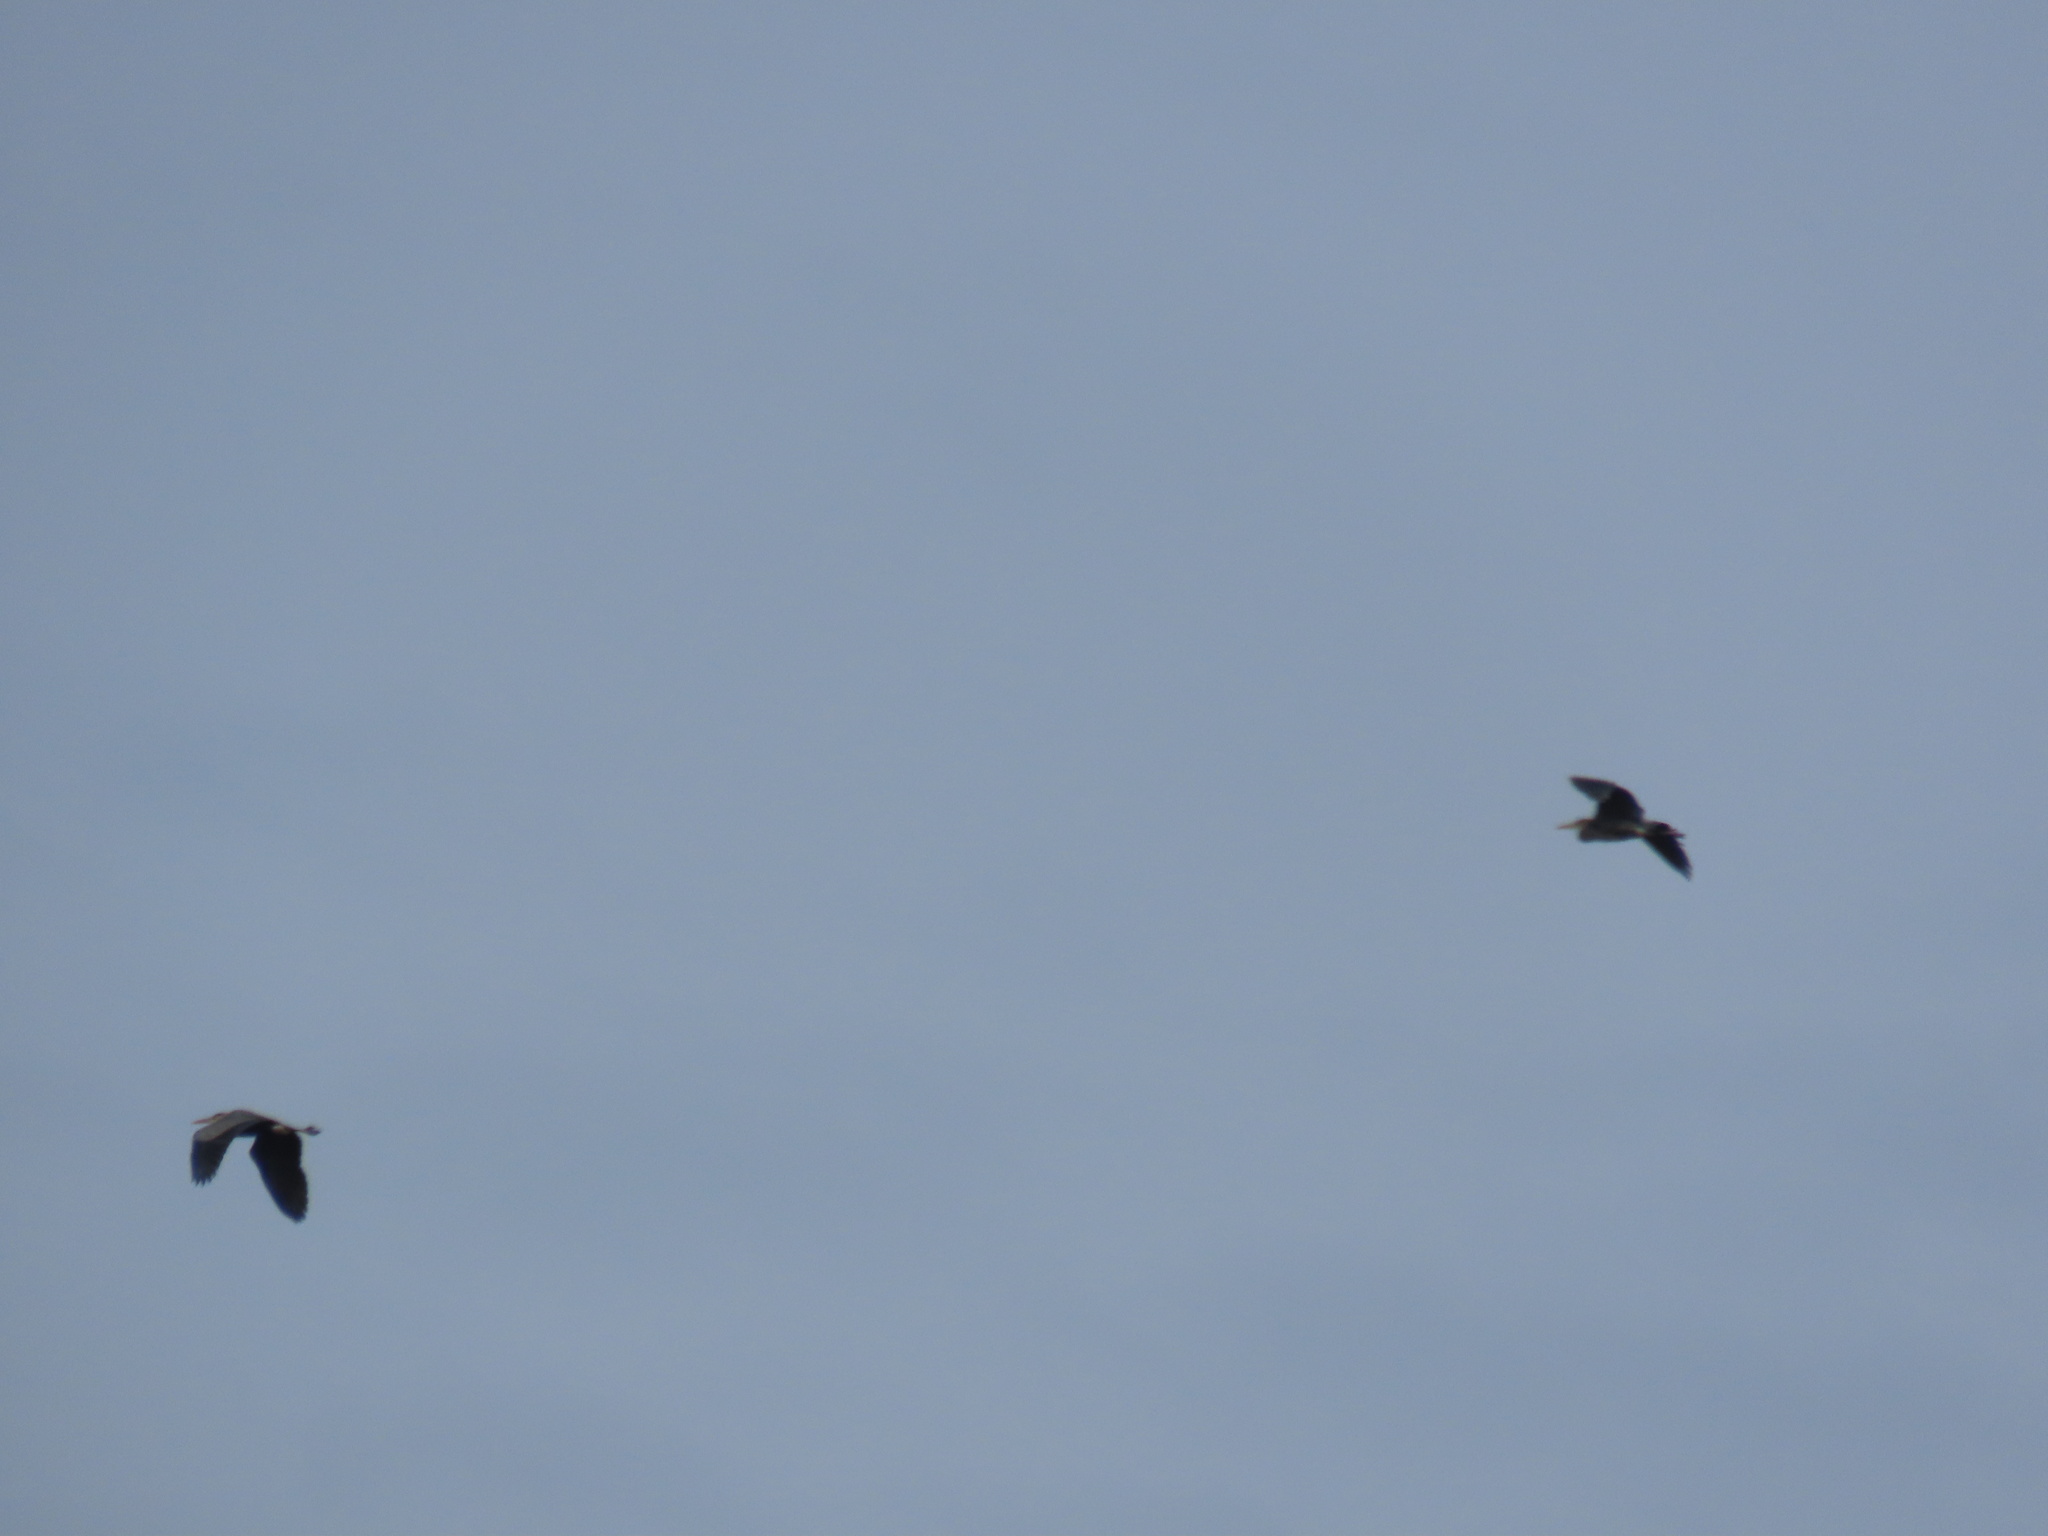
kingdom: Animalia
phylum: Chordata
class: Aves
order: Pelecaniformes
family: Ardeidae
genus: Ardea
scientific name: Ardea herodias
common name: Great blue heron
